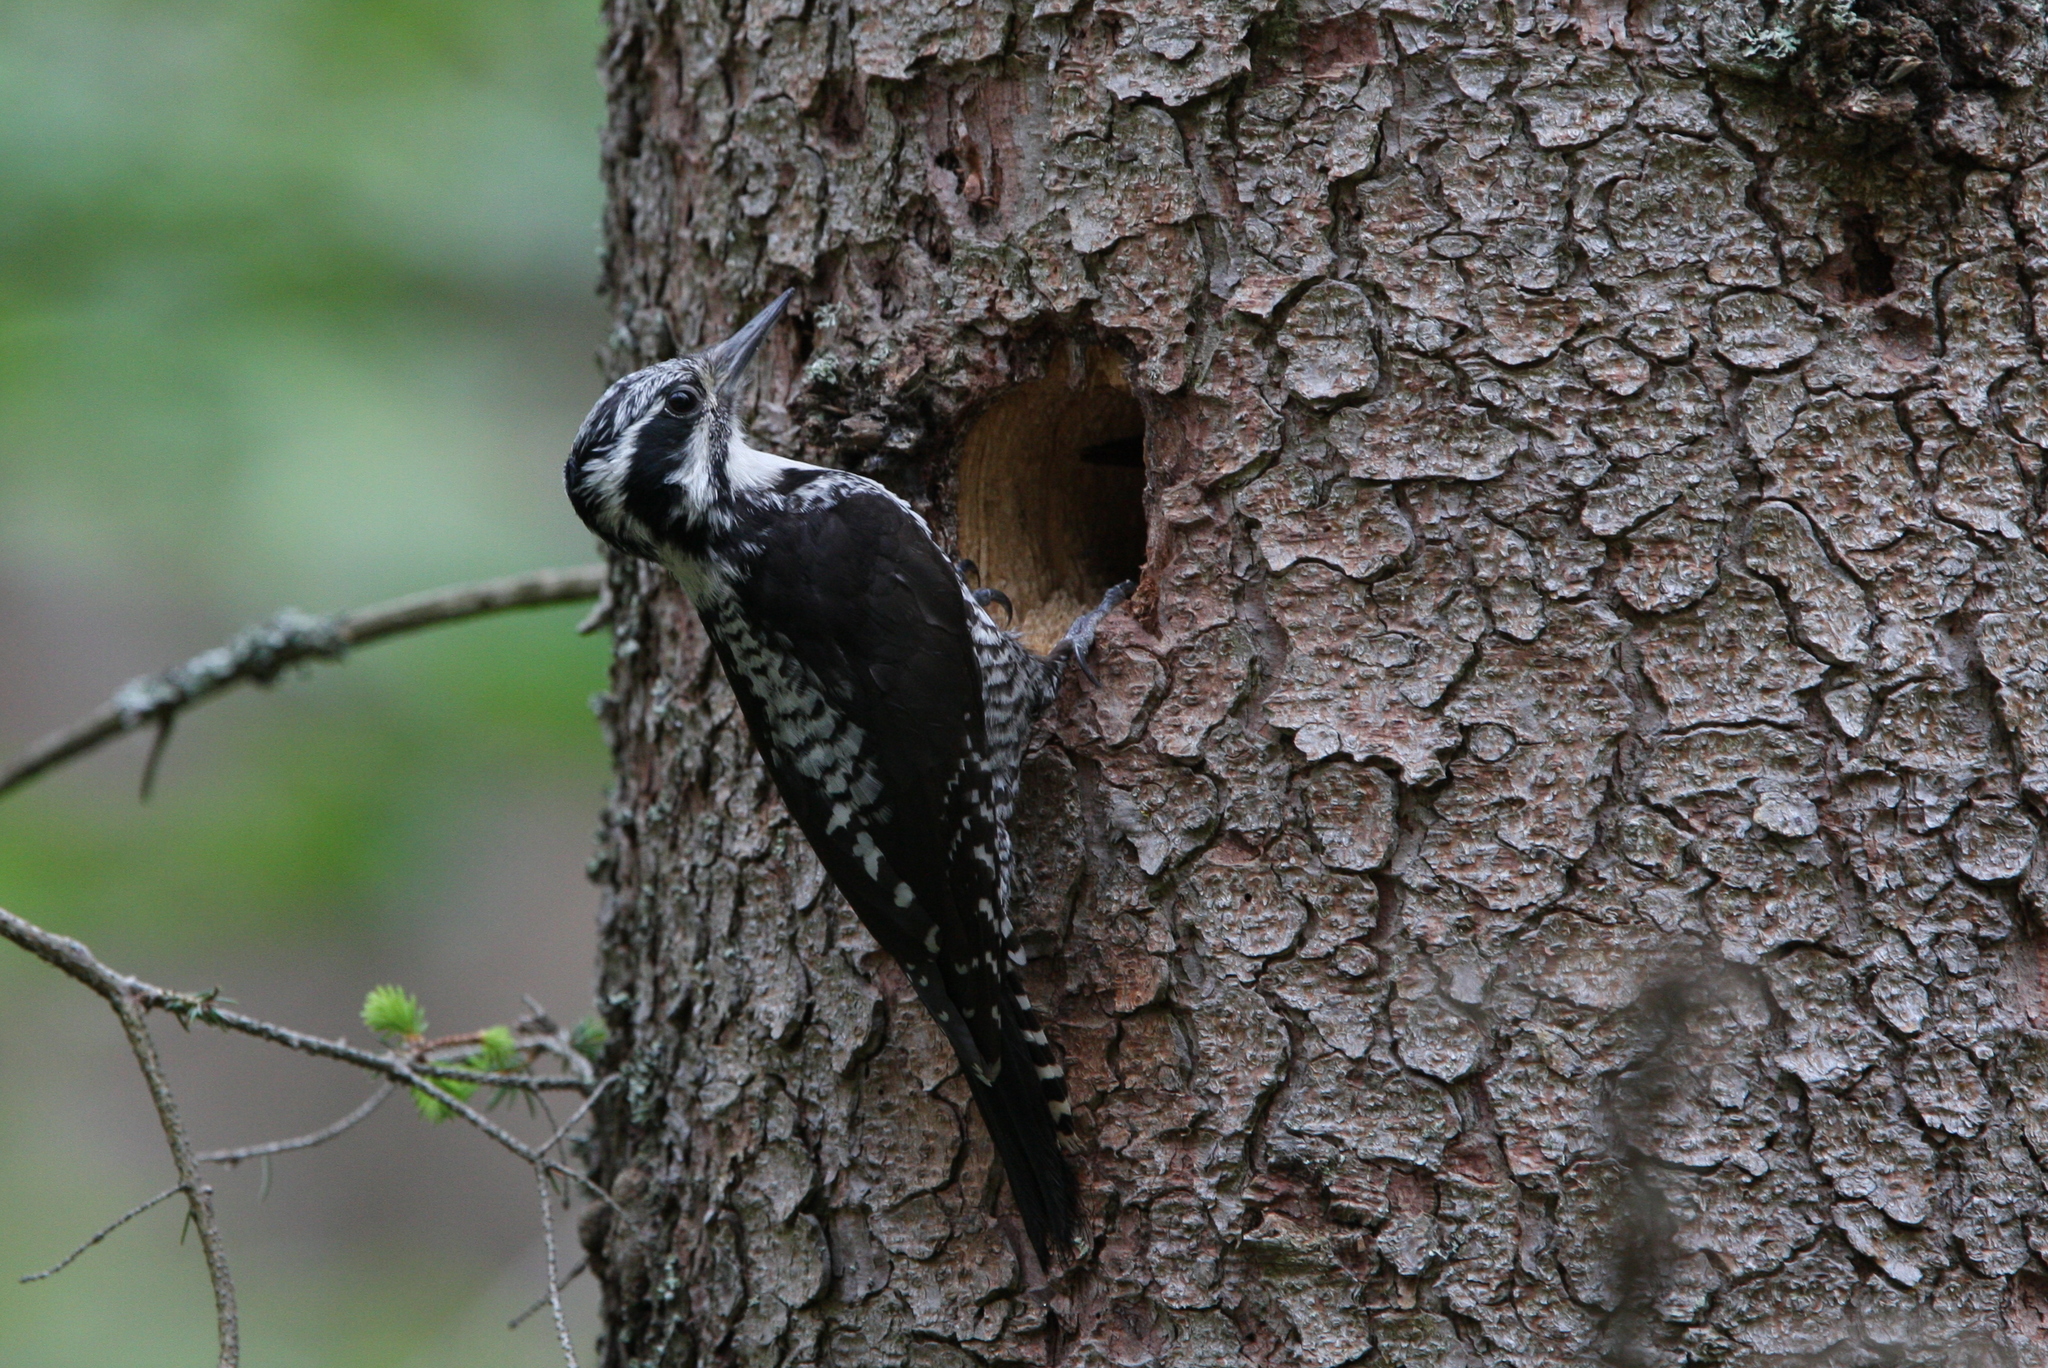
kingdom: Animalia
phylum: Chordata
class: Aves
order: Piciformes
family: Picidae
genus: Picoides
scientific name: Picoides tridactylus
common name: Eurasian three-toed woodpecker
